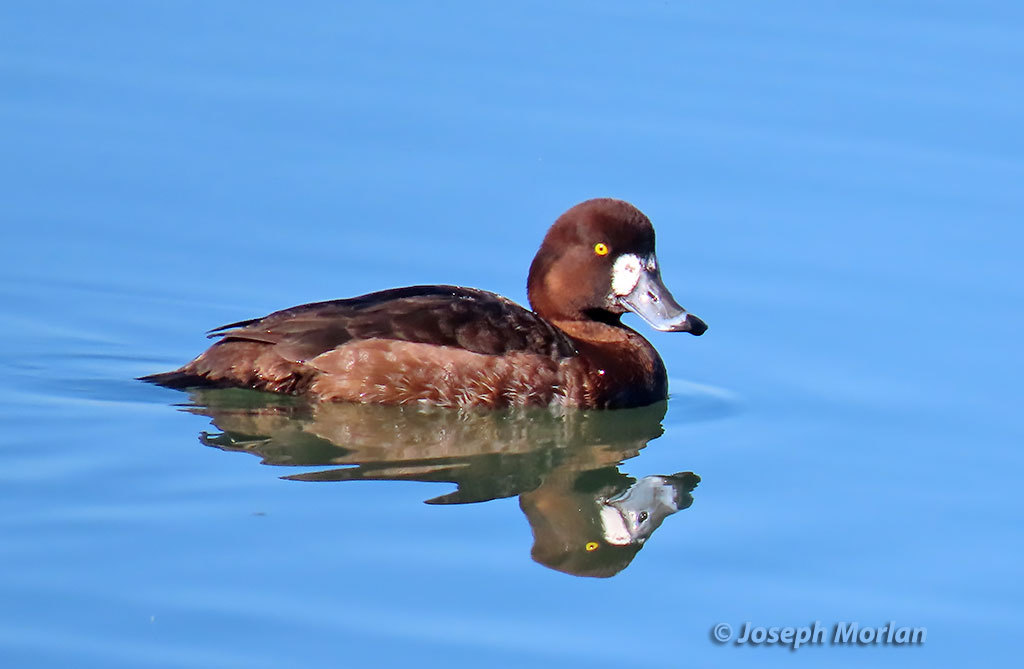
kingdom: Animalia
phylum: Chordata
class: Aves
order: Anseriformes
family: Anatidae
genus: Aythya
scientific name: Aythya marila
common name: Greater scaup
